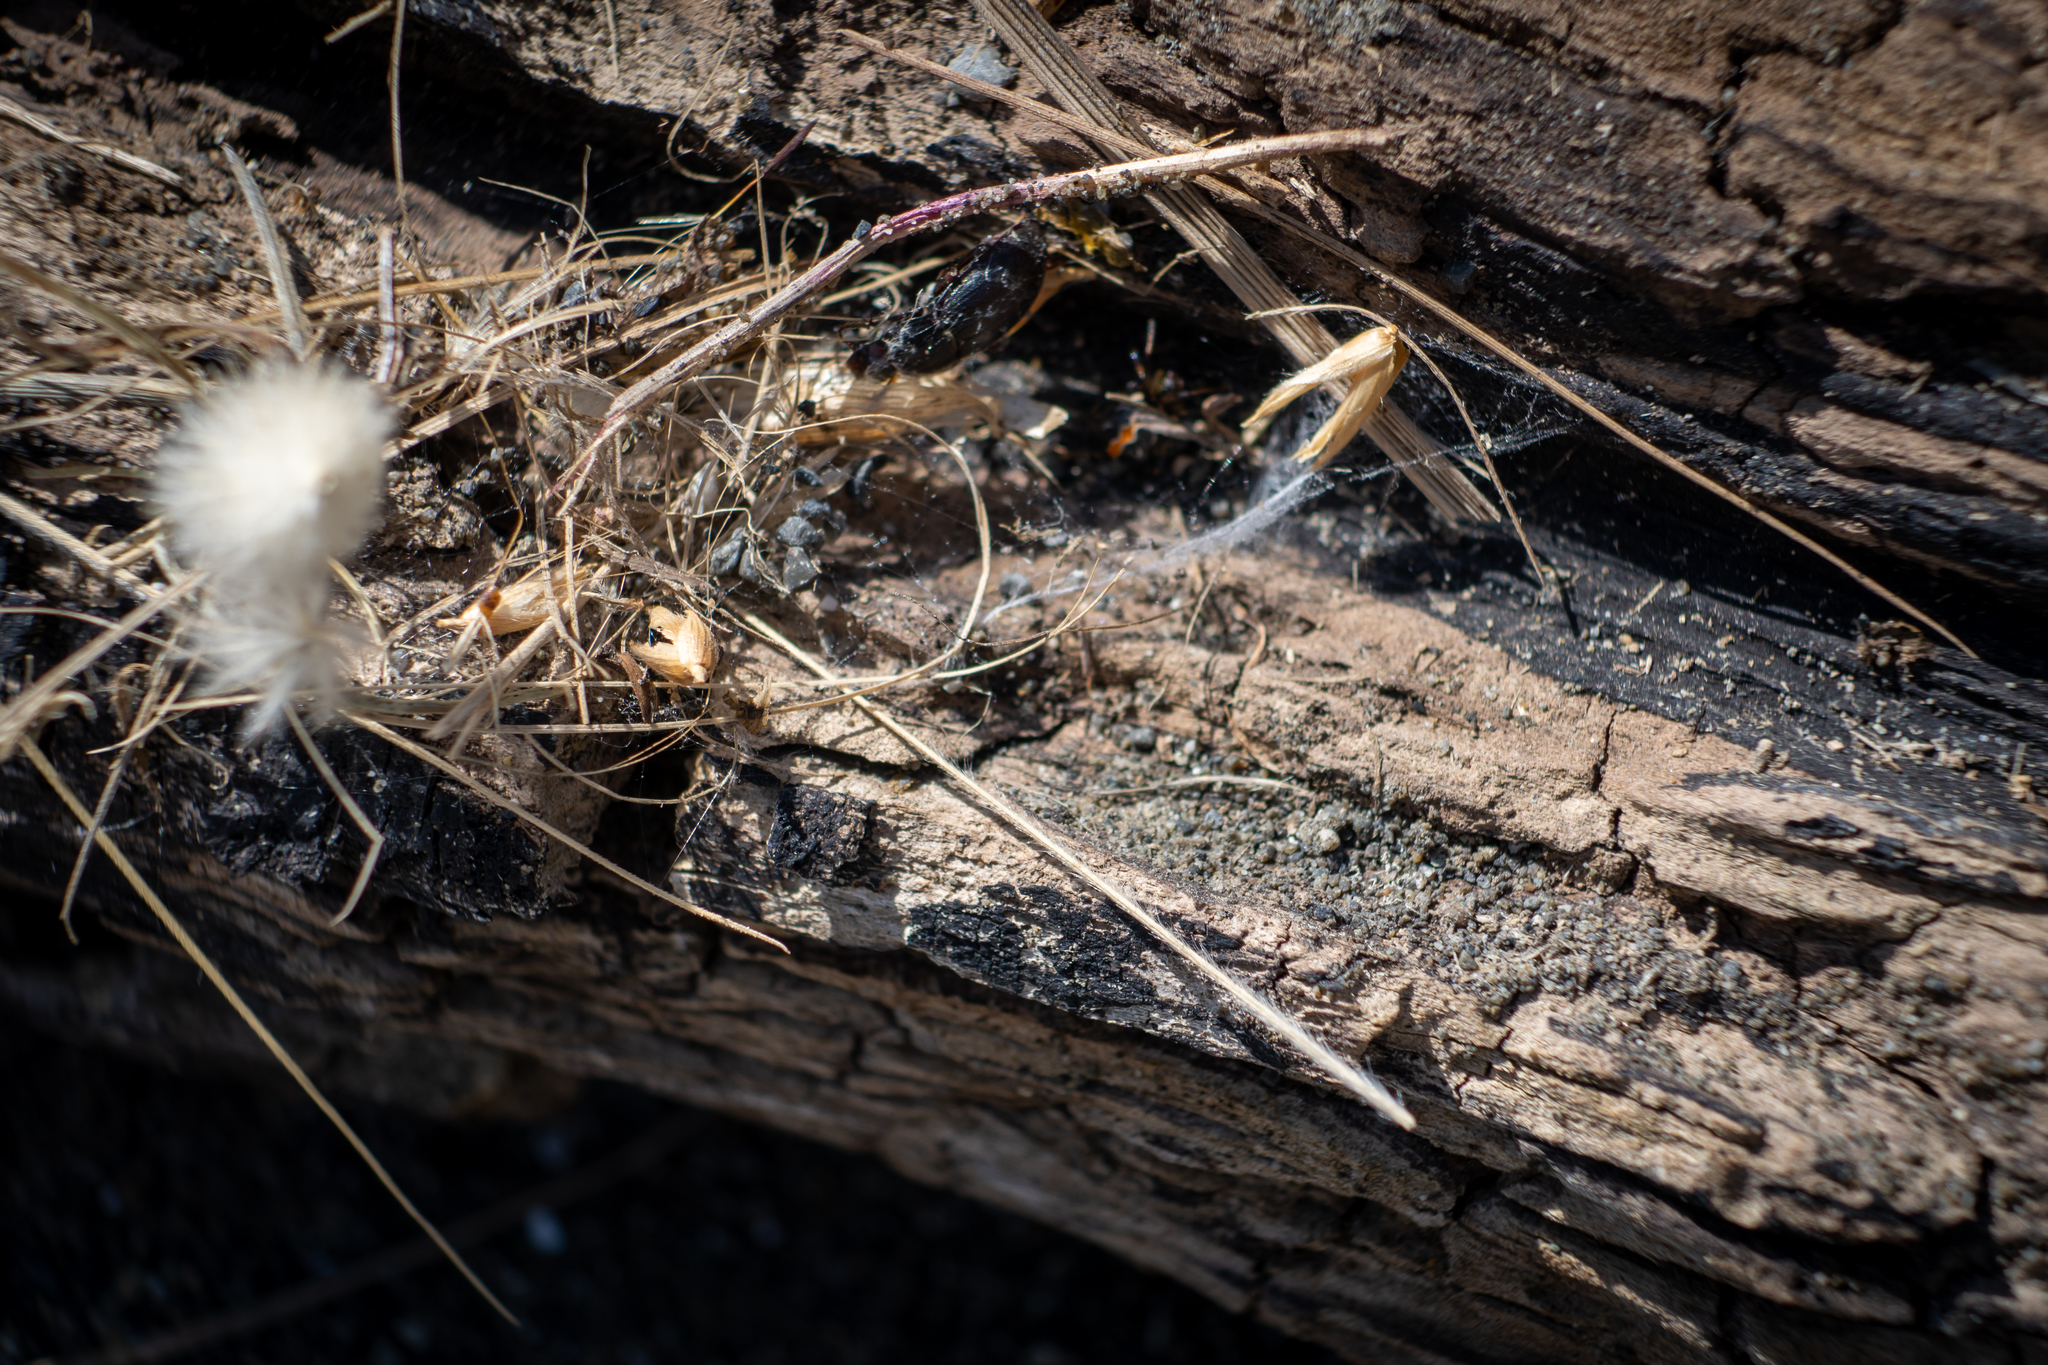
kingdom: Animalia
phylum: Arthropoda
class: Arachnida
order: Araneae
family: Theridiidae
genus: Latrodectus
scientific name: Latrodectus katipo
